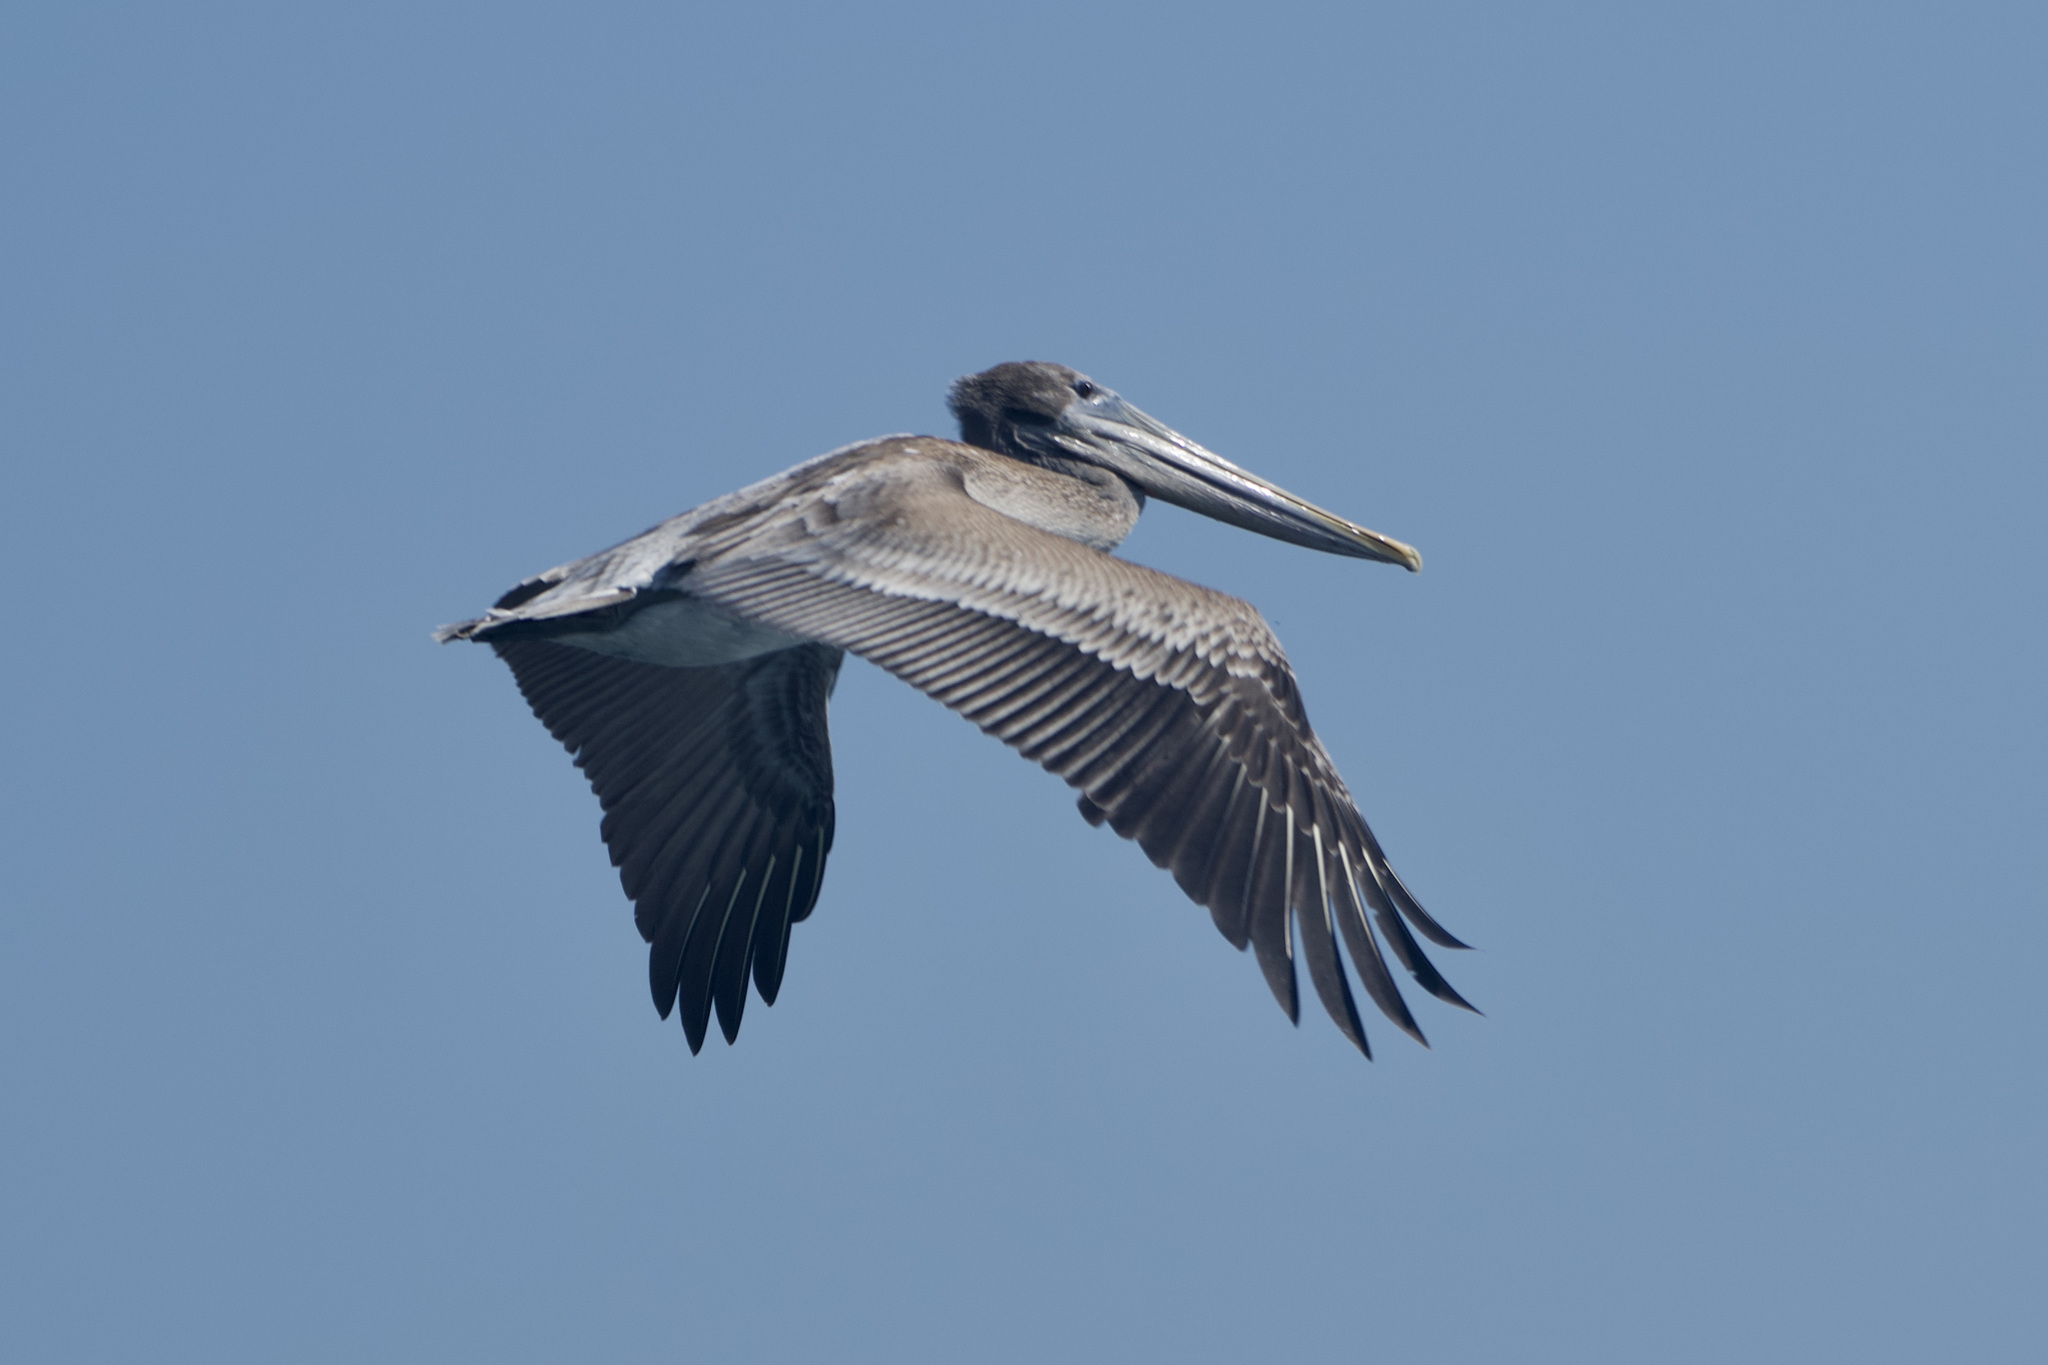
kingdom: Animalia
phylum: Chordata
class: Aves
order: Pelecaniformes
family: Pelecanidae
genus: Pelecanus
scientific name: Pelecanus occidentalis
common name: Brown pelican
